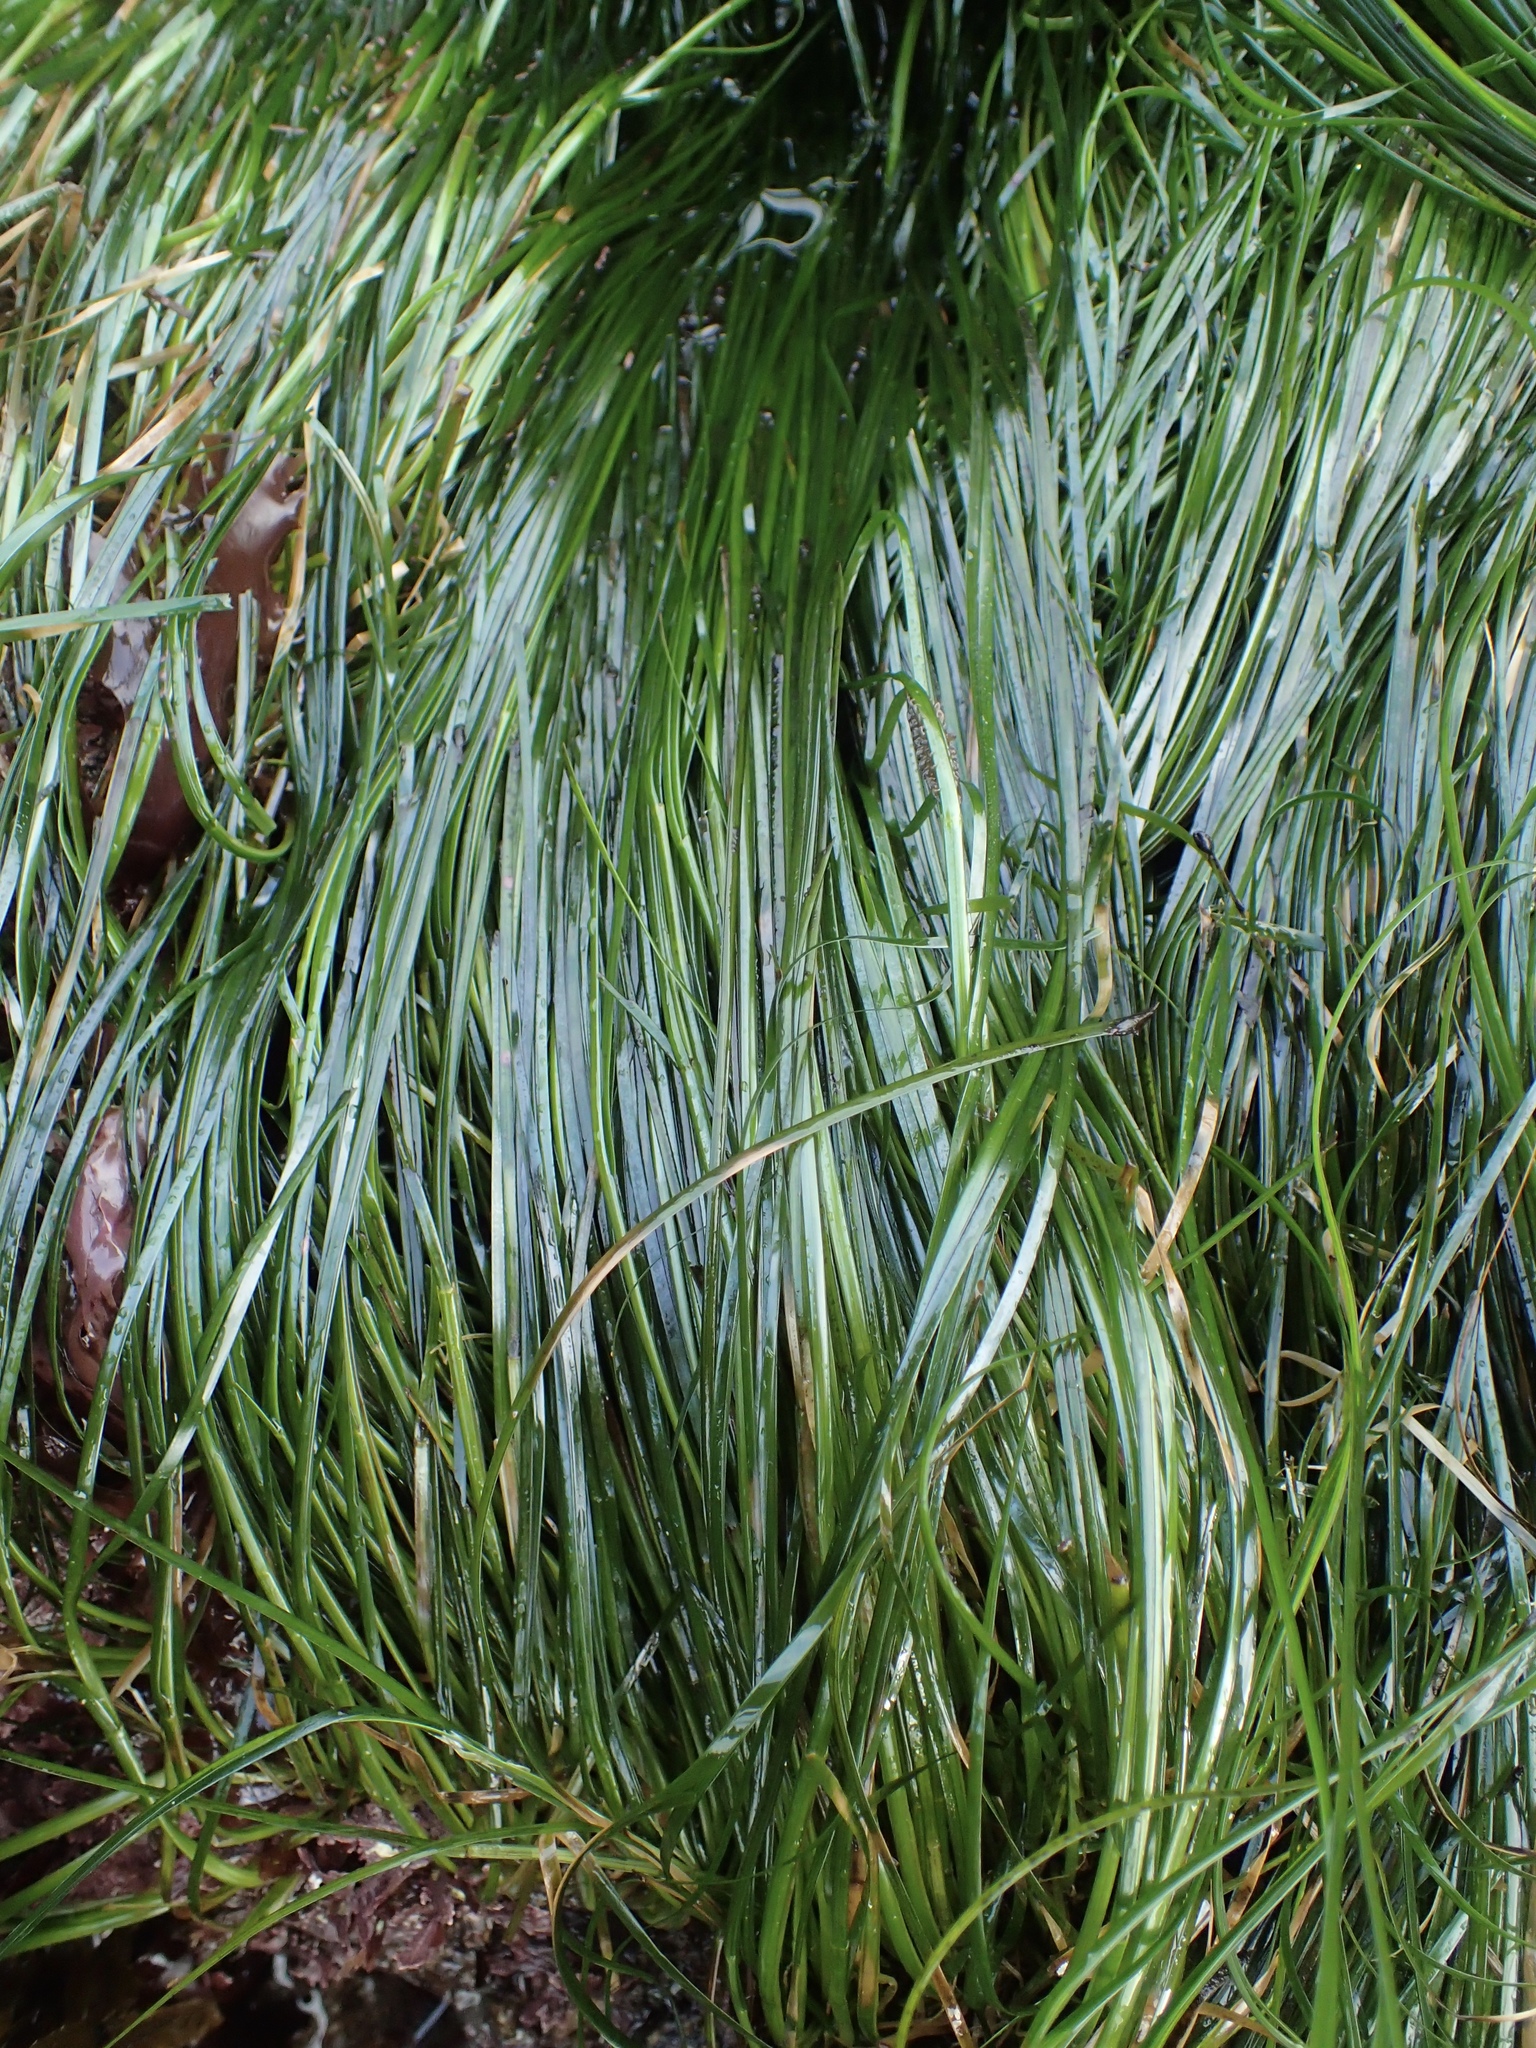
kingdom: Plantae
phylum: Tracheophyta
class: Liliopsida
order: Alismatales
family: Zosteraceae
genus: Phyllospadix
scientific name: Phyllospadix torreyi
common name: Surfgrass
